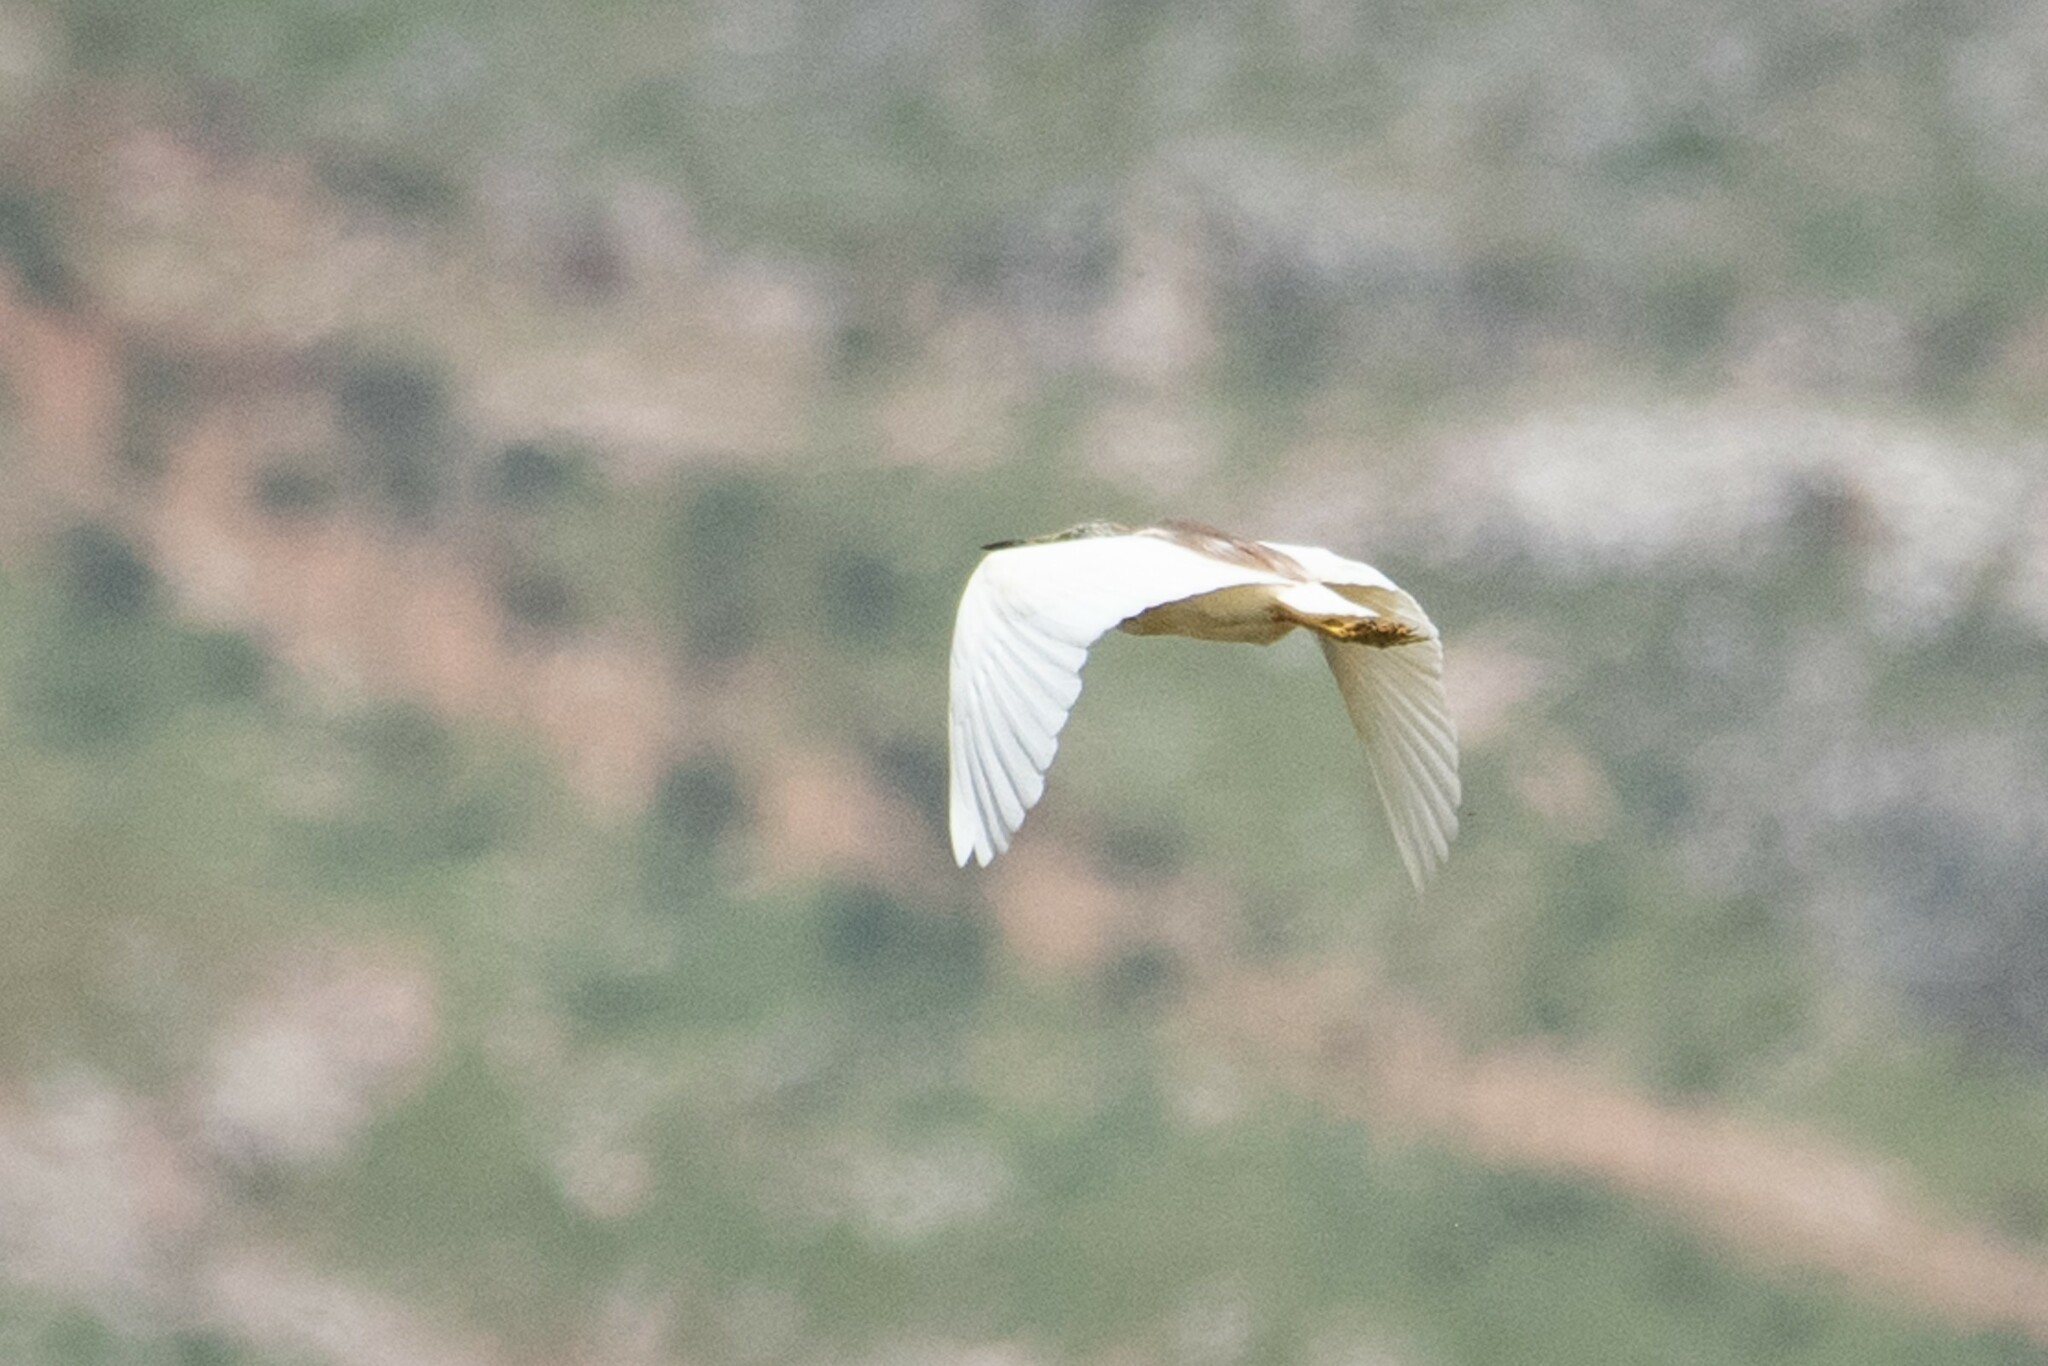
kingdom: Animalia
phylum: Chordata
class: Aves
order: Pelecaniformes
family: Ardeidae
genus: Ardeola
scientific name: Ardeola ralloides
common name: Squacco heron
